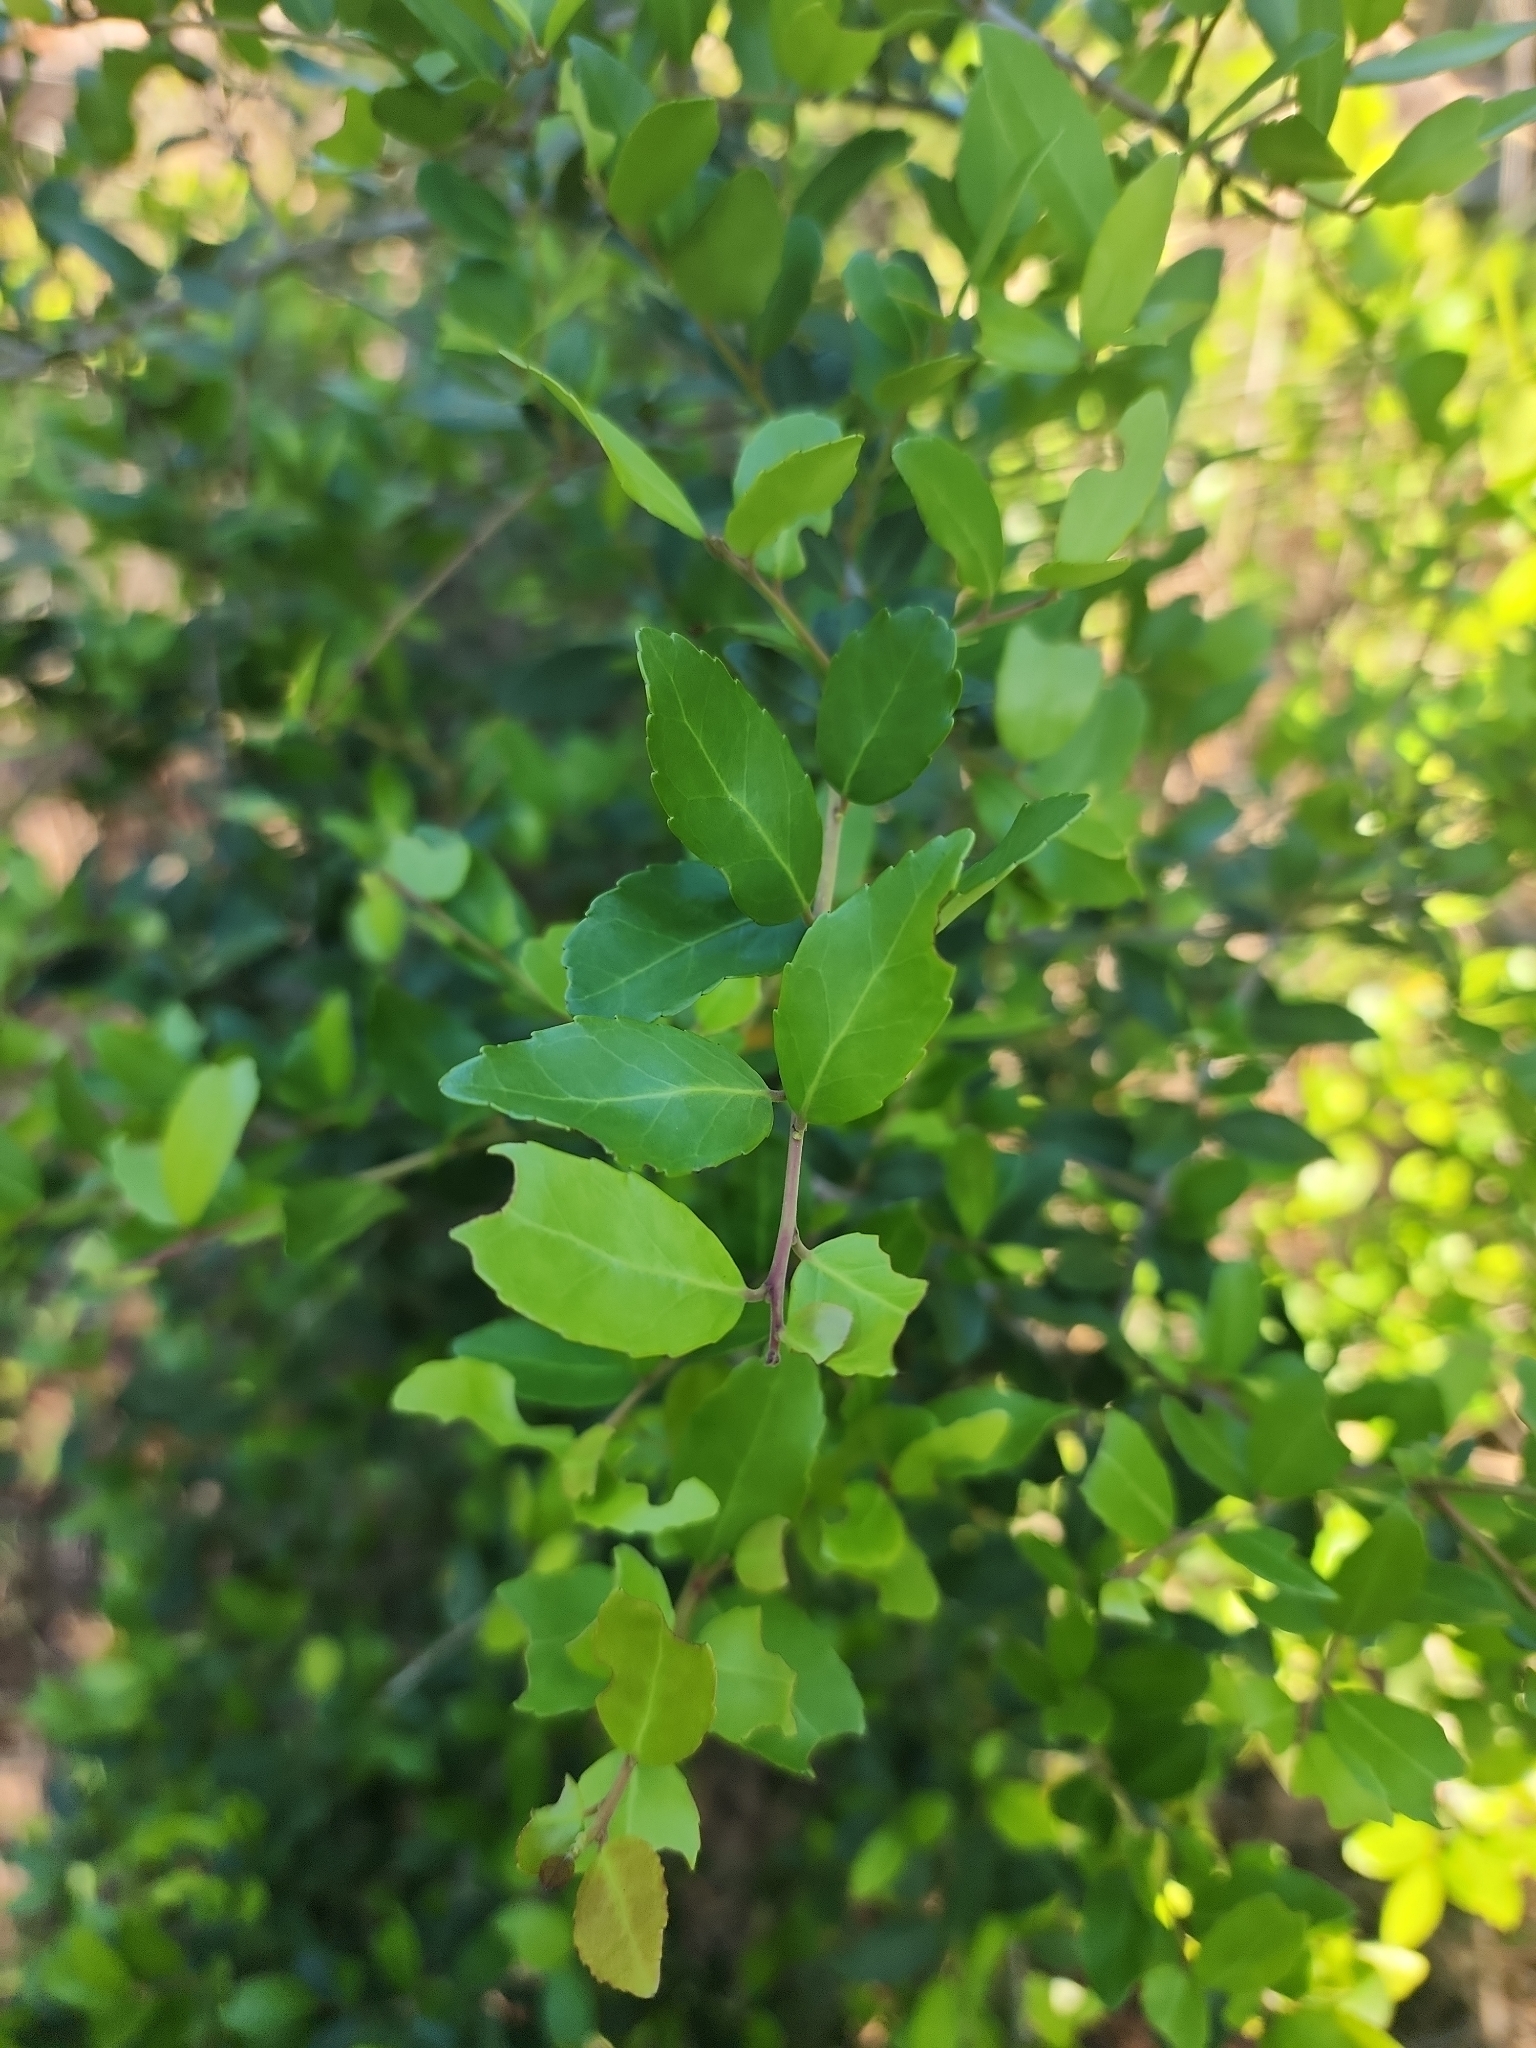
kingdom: Plantae
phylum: Tracheophyta
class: Magnoliopsida
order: Aquifoliales
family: Aquifoliaceae
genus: Ilex
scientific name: Ilex vomitoria
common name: Yaupon holly
